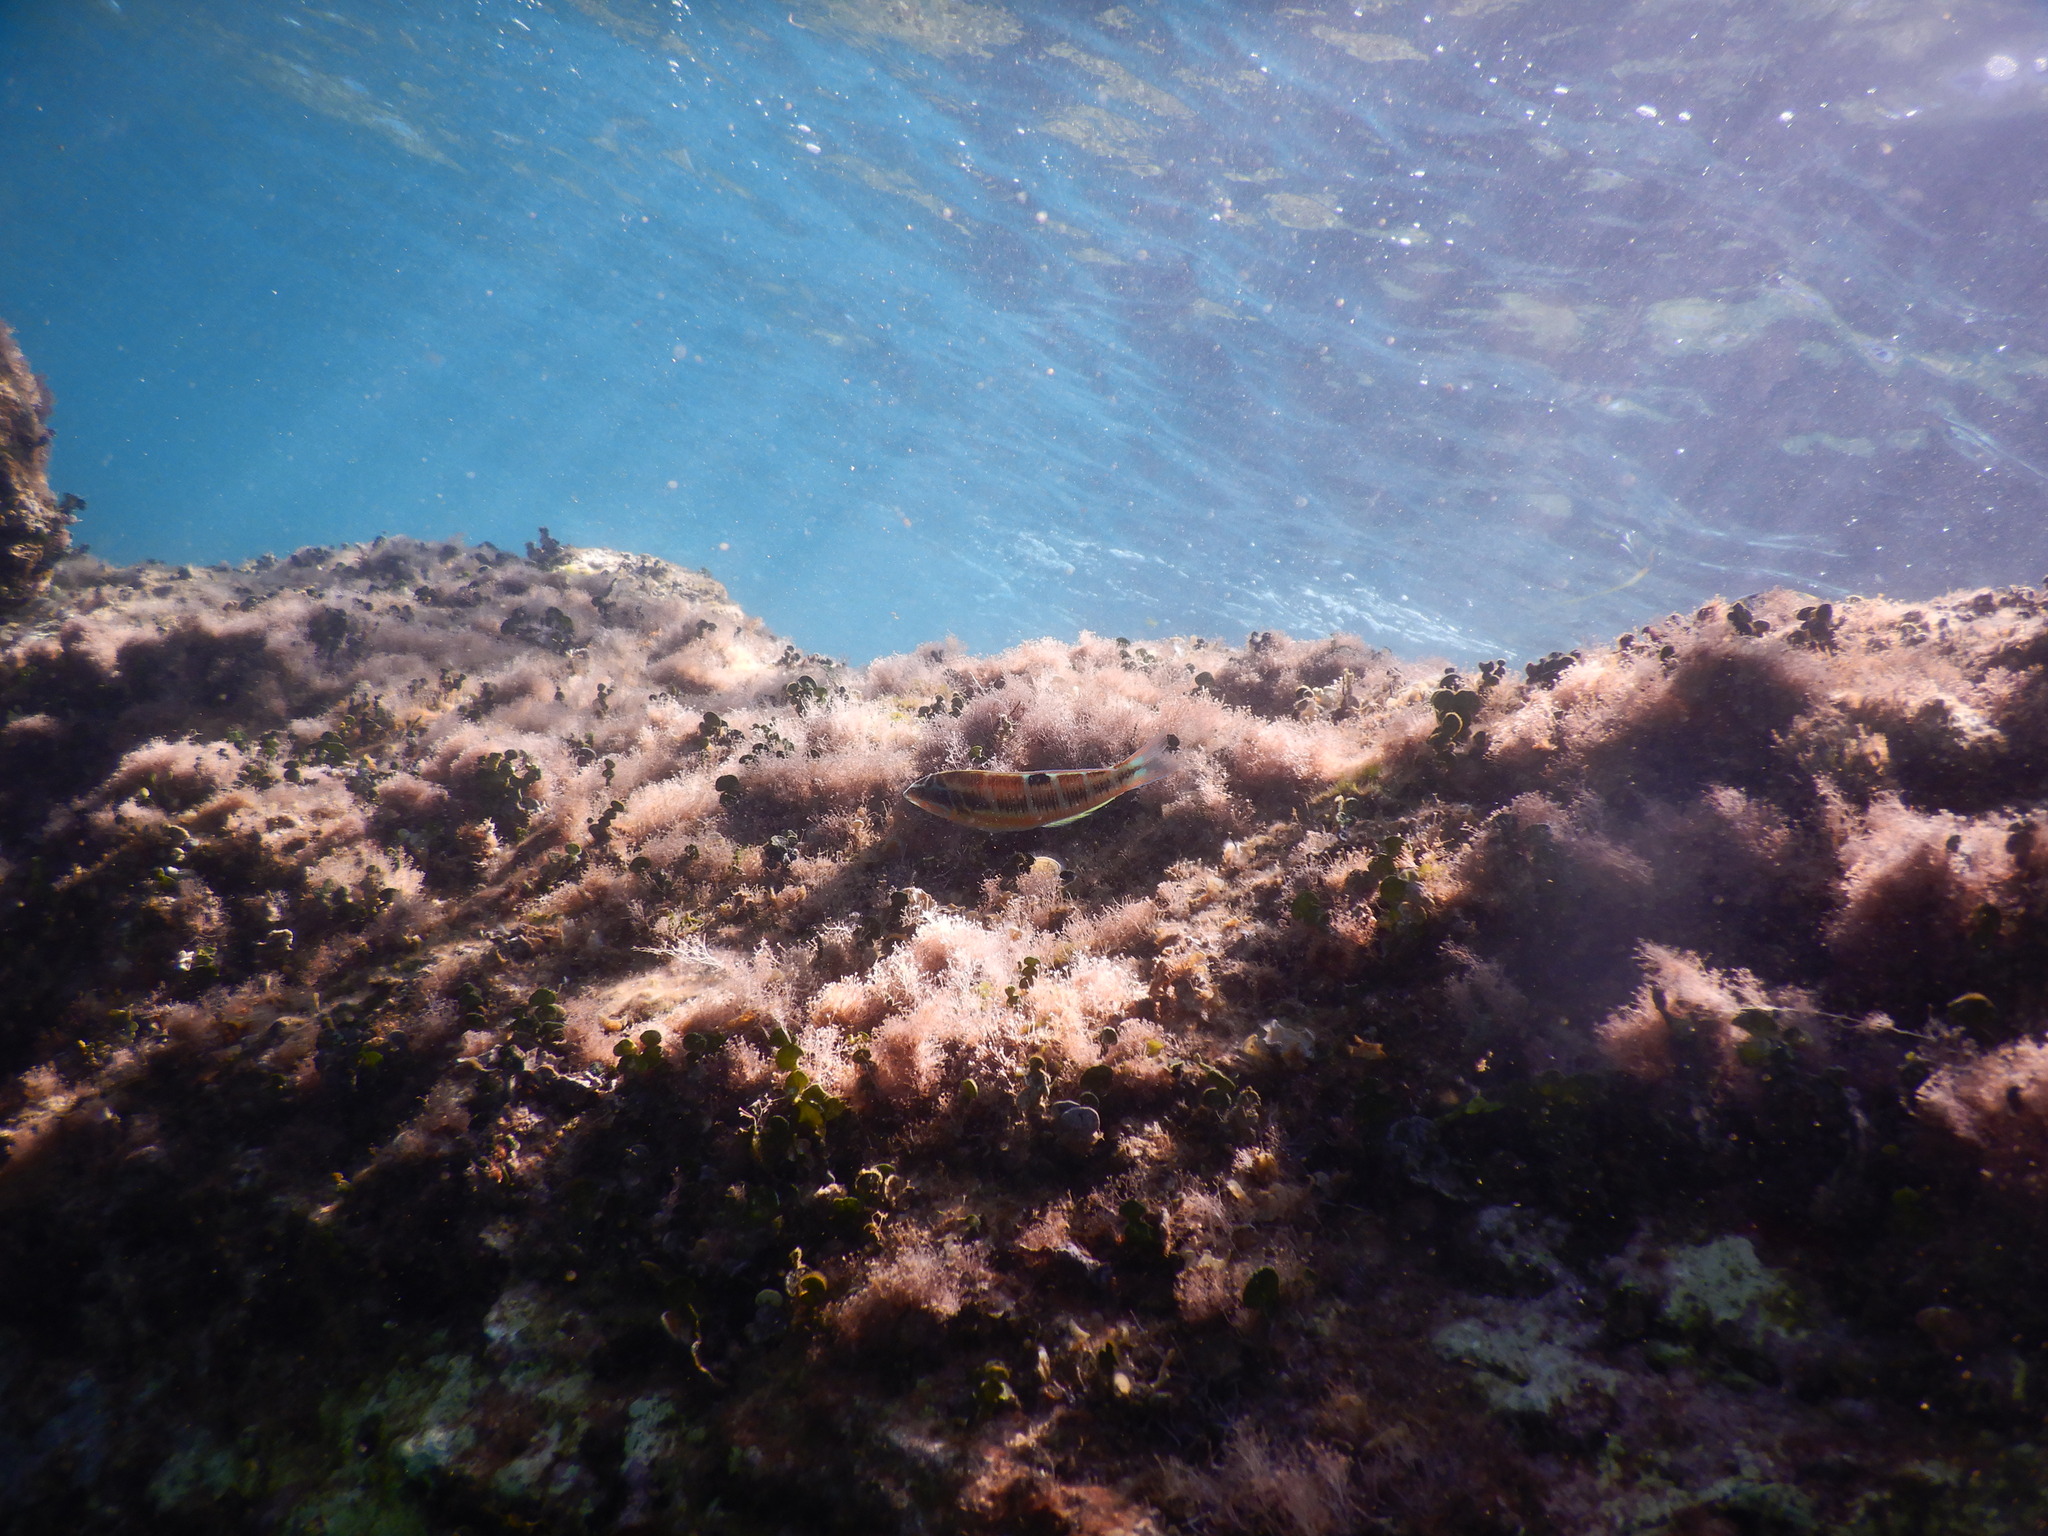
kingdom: Animalia
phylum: Chordata
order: Perciformes
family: Labridae
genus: Thalassoma
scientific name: Thalassoma pavo
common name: Ornate wrasse
